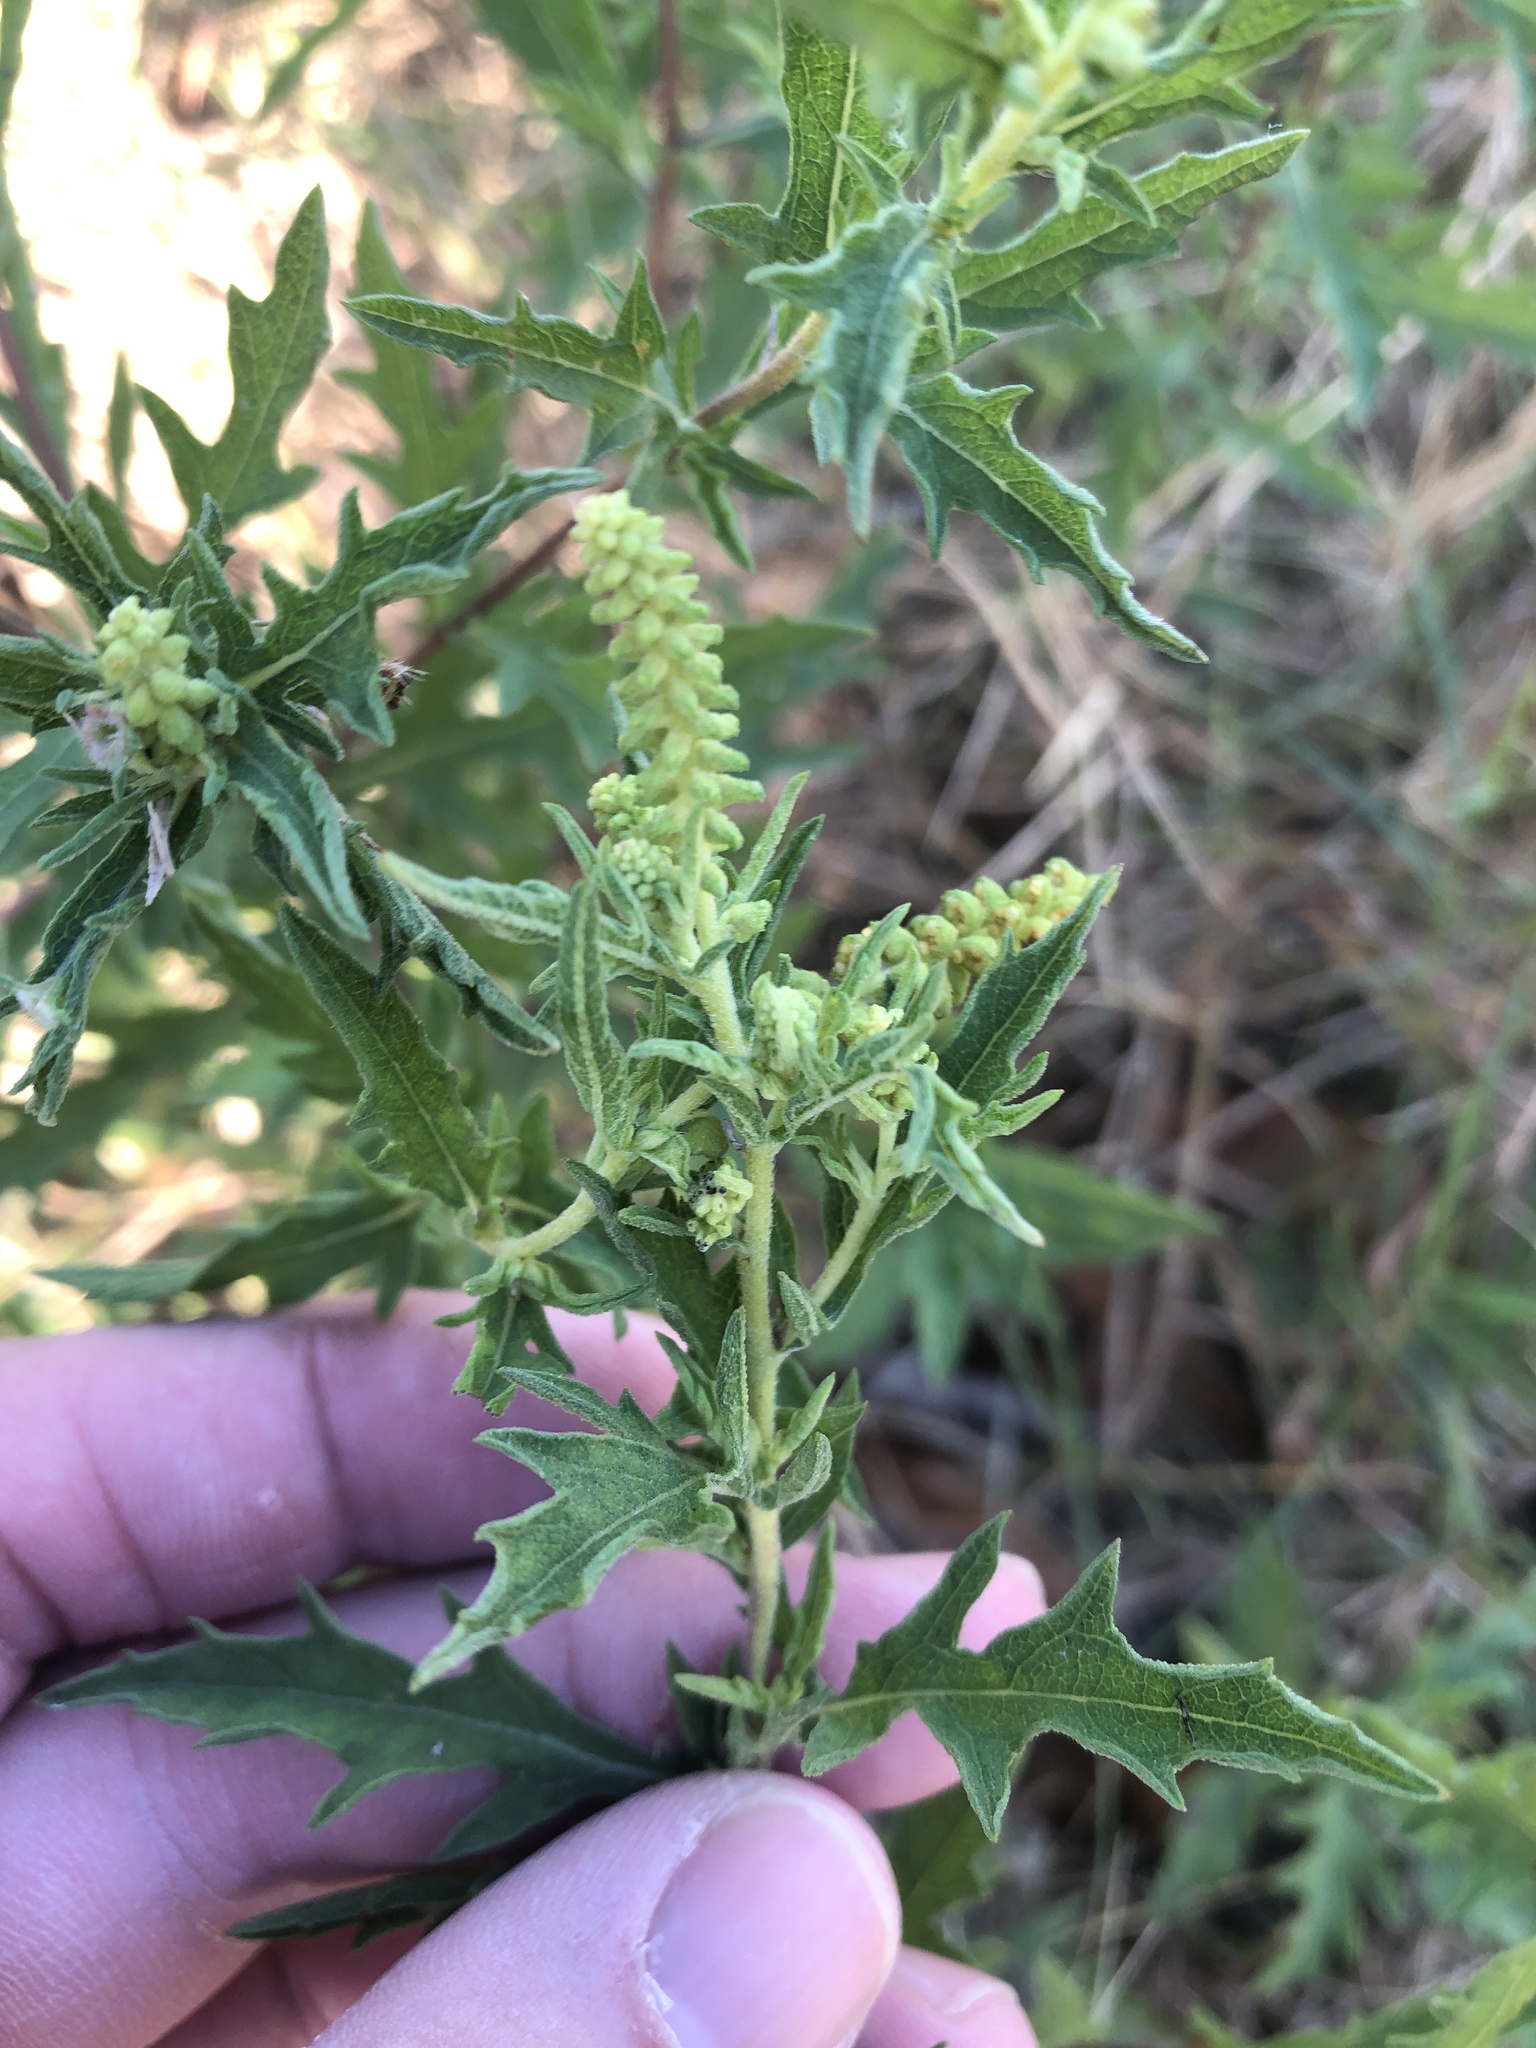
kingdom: Plantae
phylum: Tracheophyta
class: Magnoliopsida
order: Asterales
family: Asteraceae
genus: Ambrosia
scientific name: Ambrosia psilostachya
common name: Perennial ragweed
